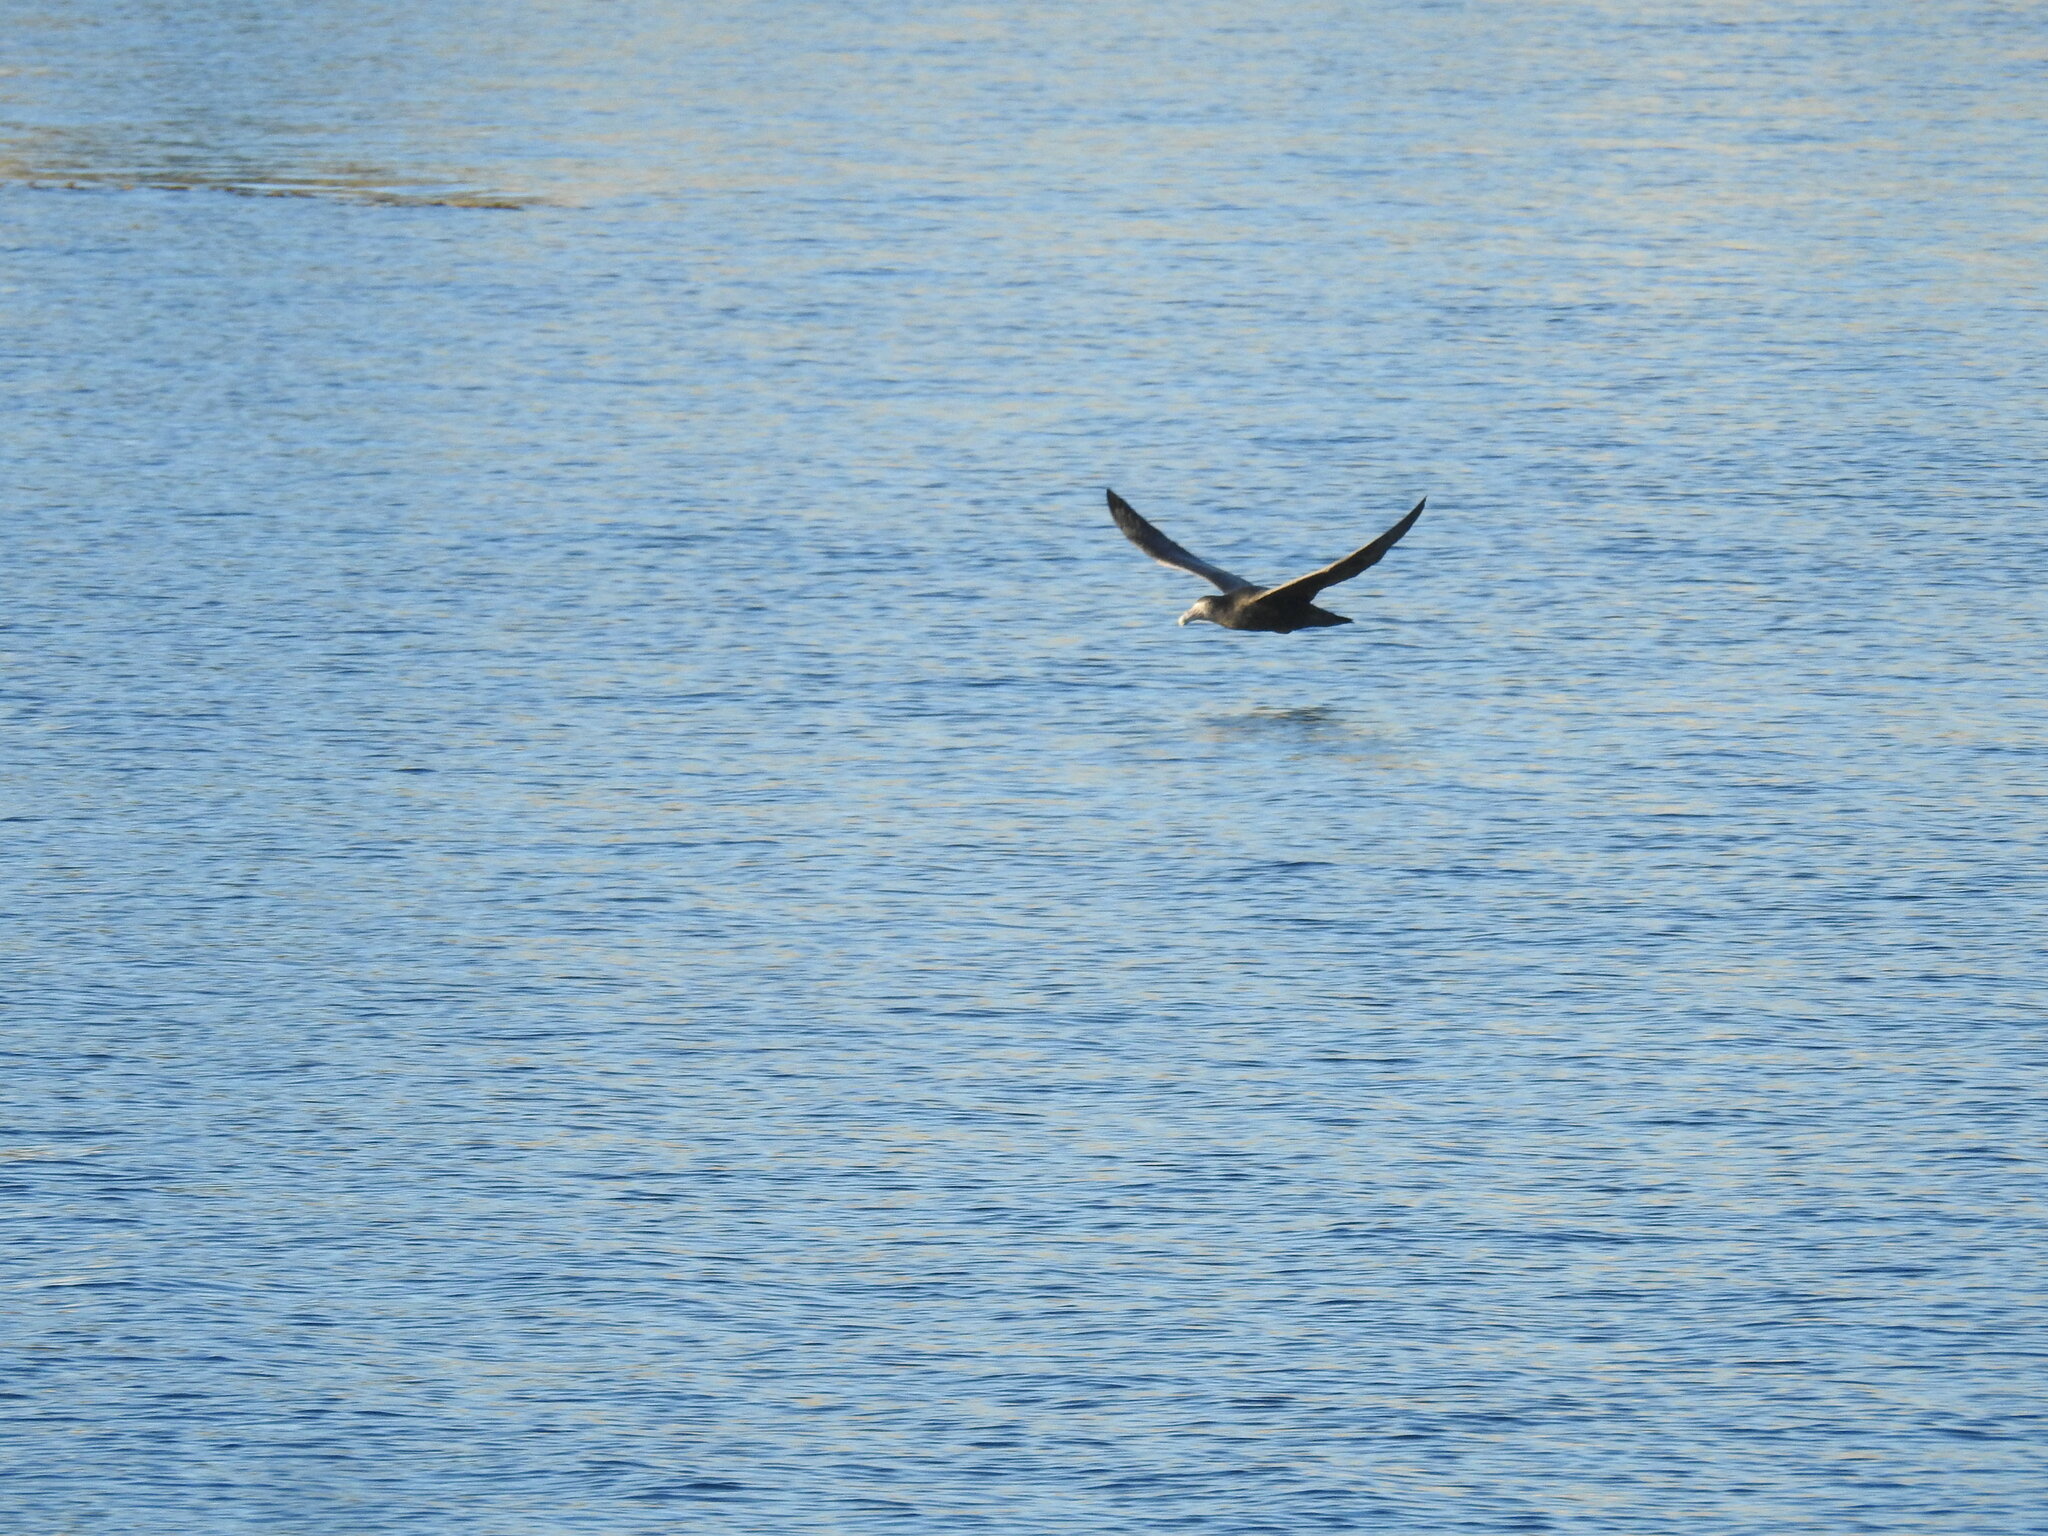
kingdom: Animalia
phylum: Chordata
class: Aves
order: Procellariiformes
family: Procellariidae
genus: Macronectes
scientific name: Macronectes giganteus
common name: Southern giant petrel
